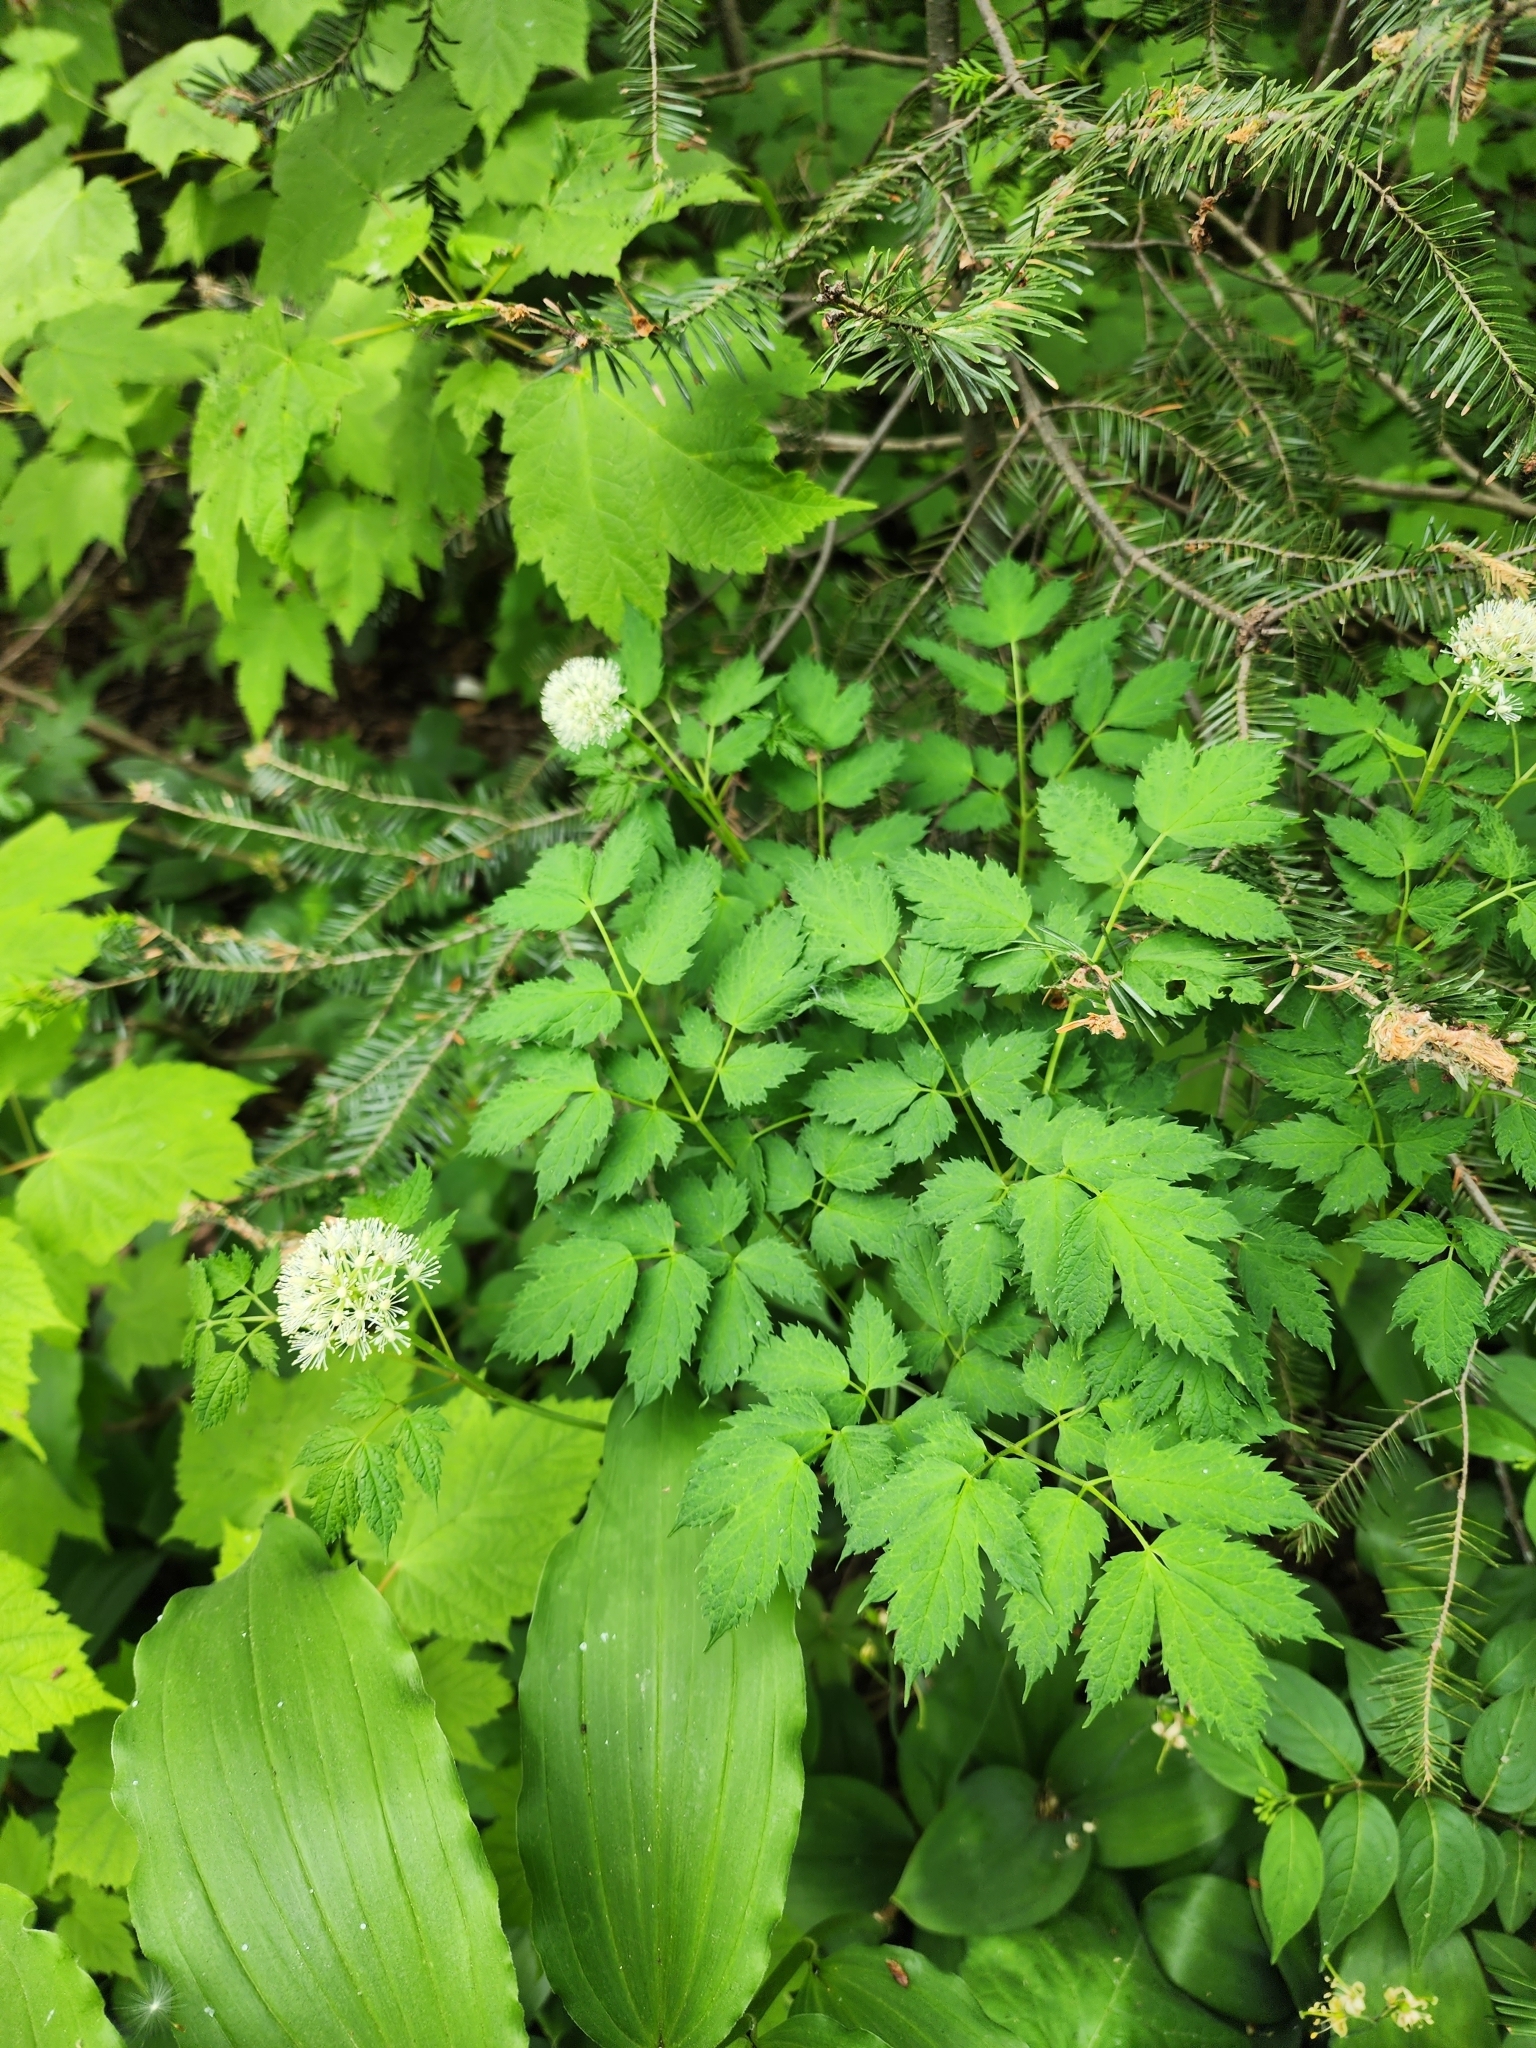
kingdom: Plantae
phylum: Tracheophyta
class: Magnoliopsida
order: Ranunculales
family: Ranunculaceae
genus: Actaea
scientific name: Actaea rubra
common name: Red baneberry
